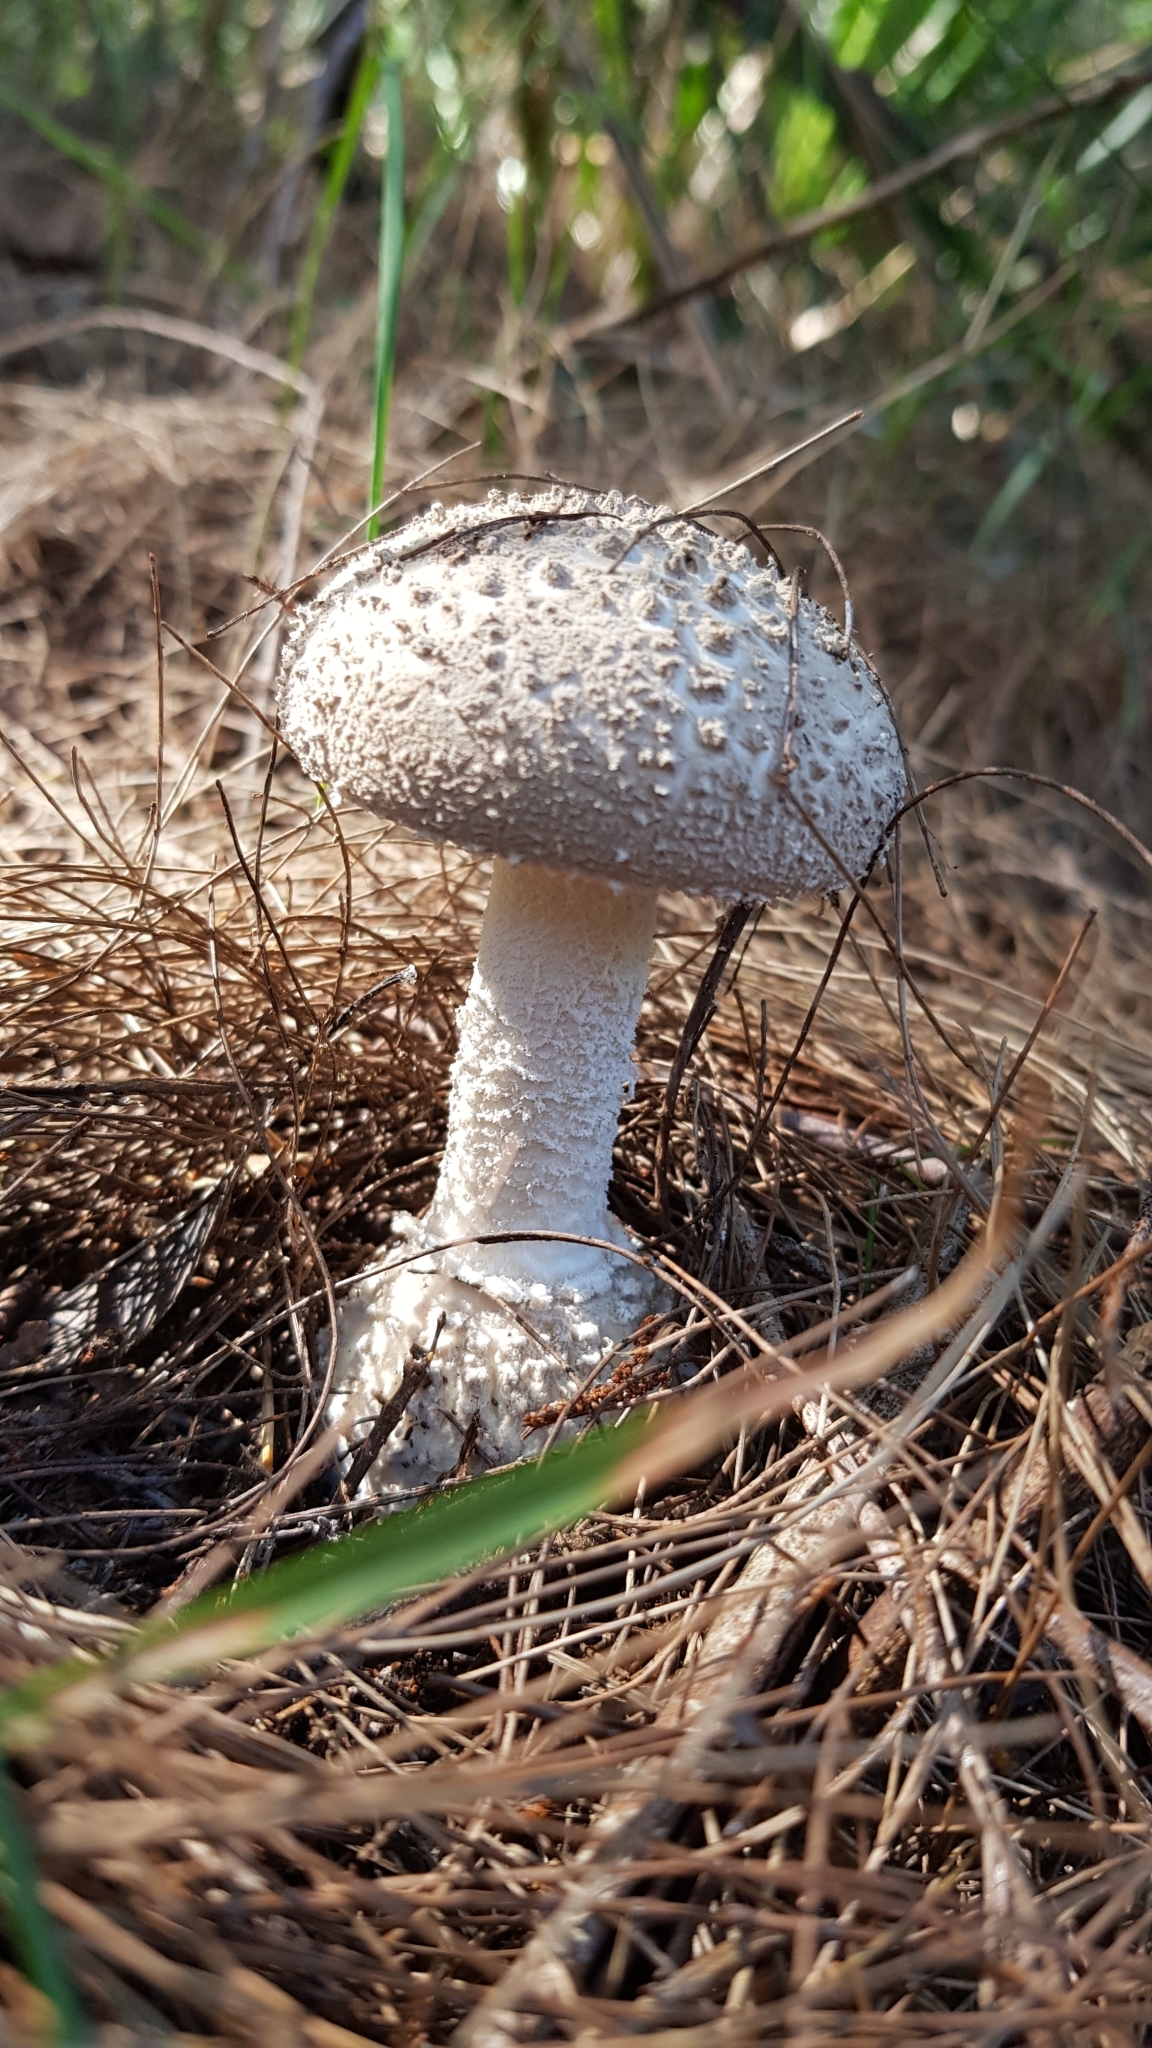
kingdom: Fungi
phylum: Basidiomycota
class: Agaricomycetes
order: Agaricales
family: Amanitaceae
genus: Amanita
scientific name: Amanita farinacea
